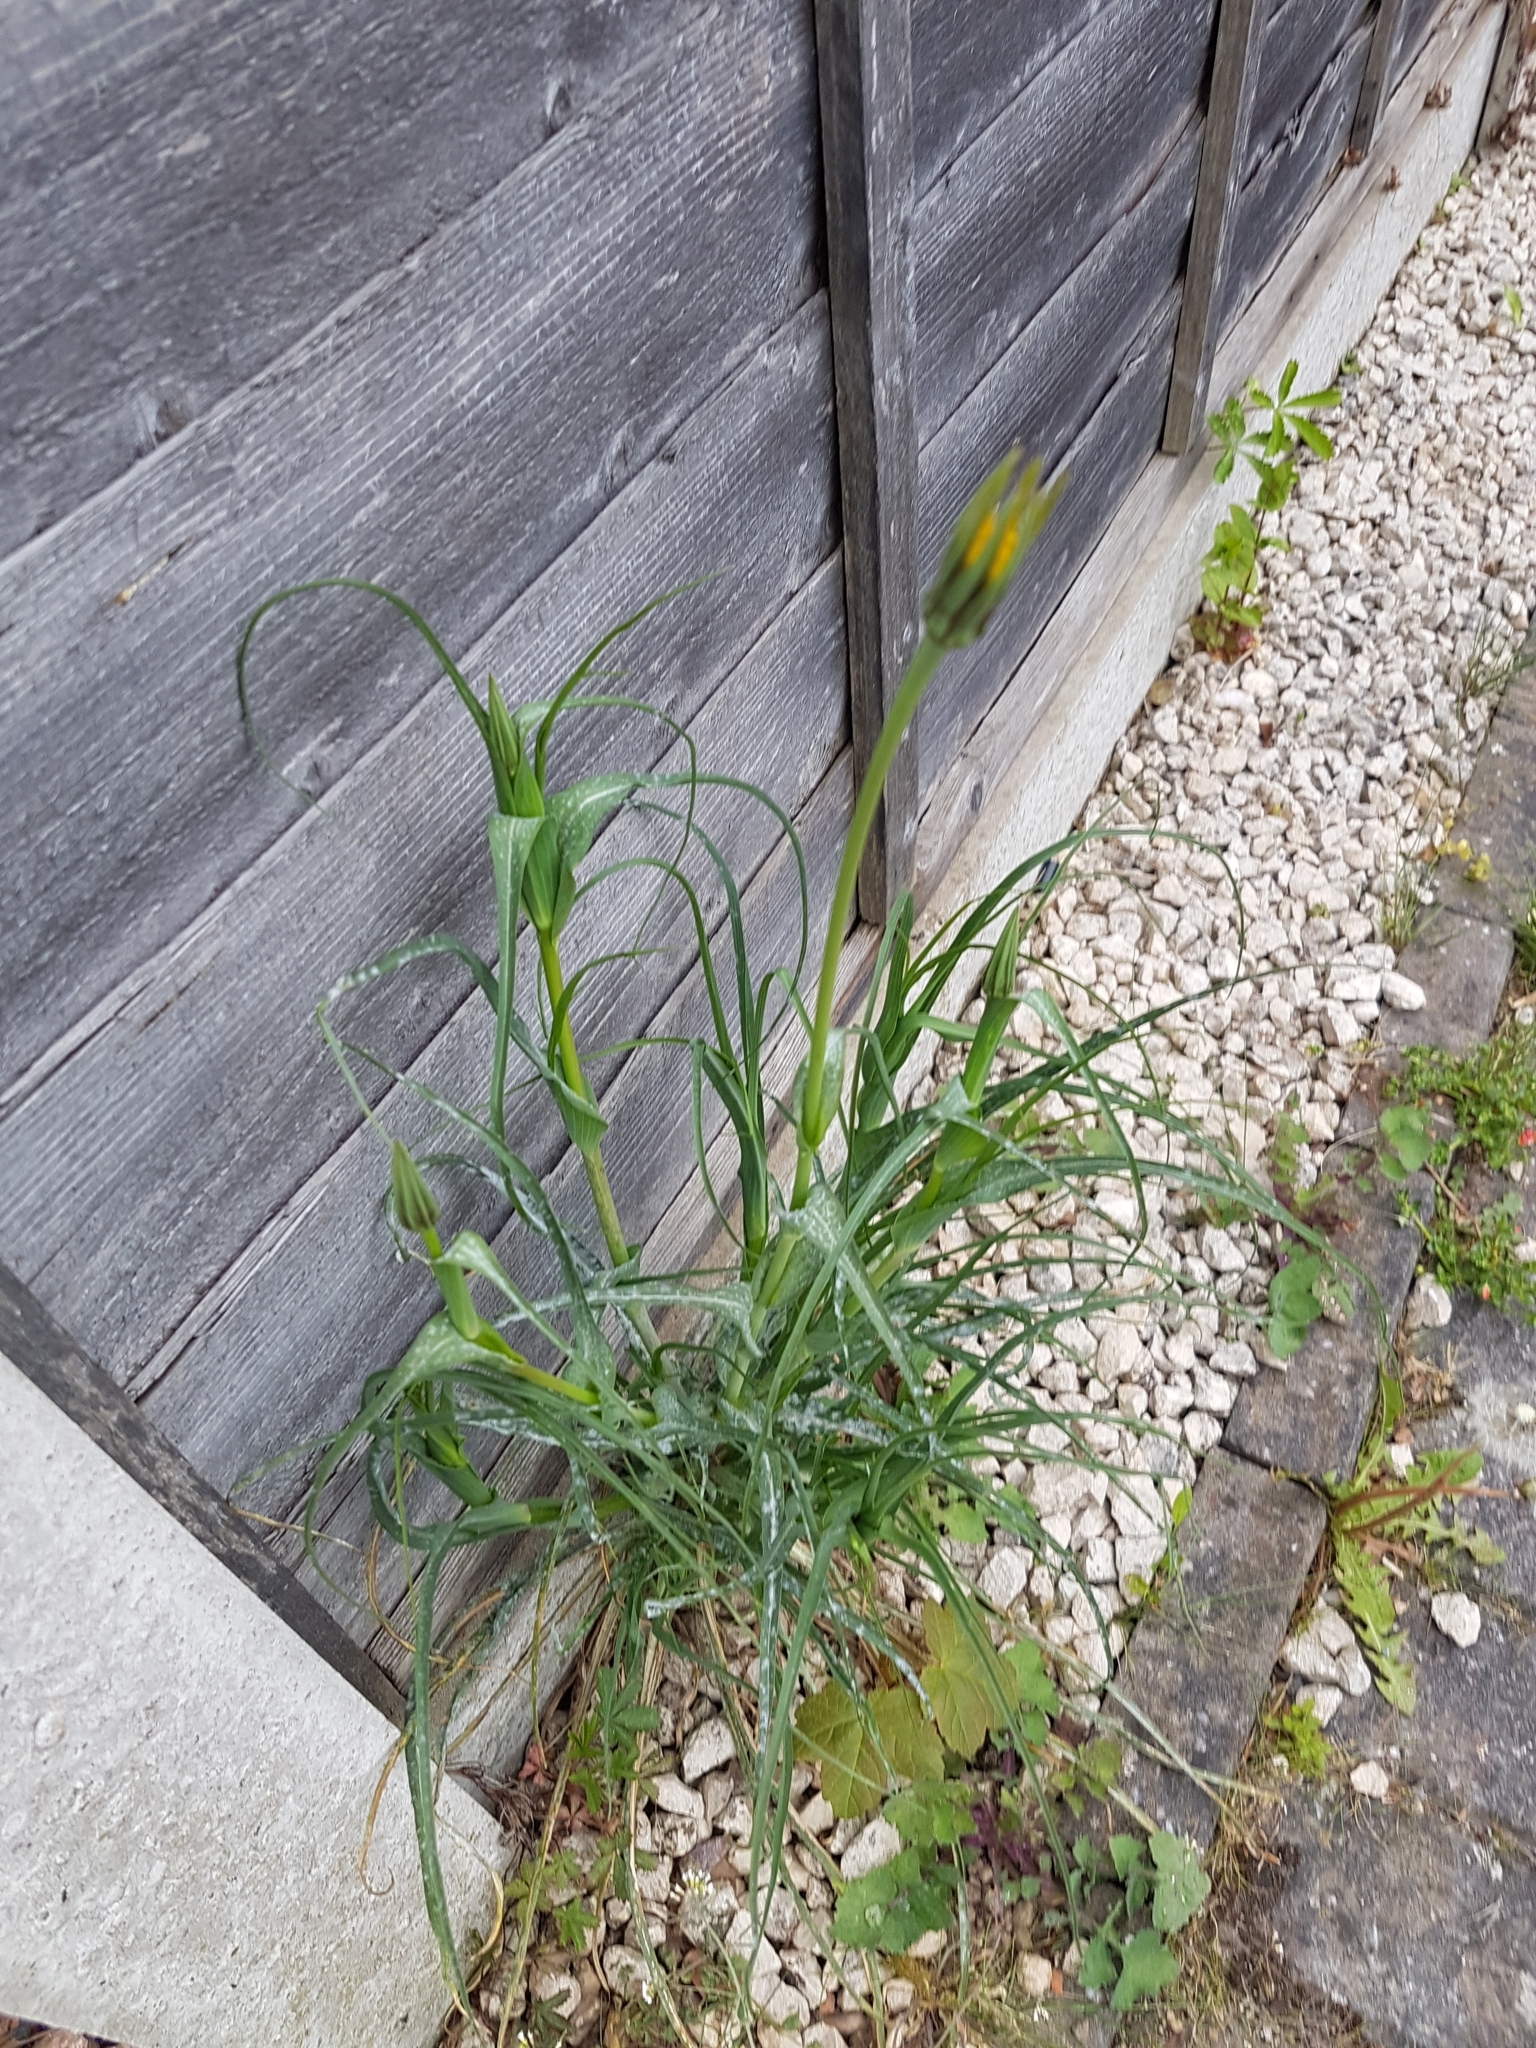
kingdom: Plantae
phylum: Tracheophyta
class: Magnoliopsida
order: Asterales
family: Asteraceae
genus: Tragopogon
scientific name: Tragopogon minor
